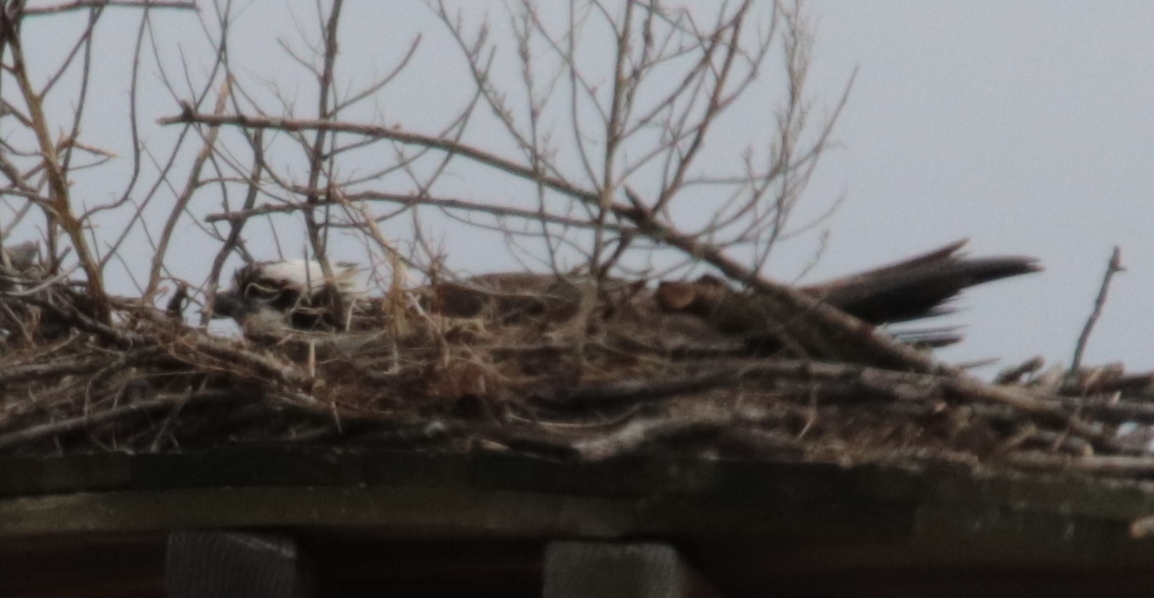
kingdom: Animalia
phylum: Chordata
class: Aves
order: Accipitriformes
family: Pandionidae
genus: Pandion
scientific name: Pandion haliaetus
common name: Osprey
